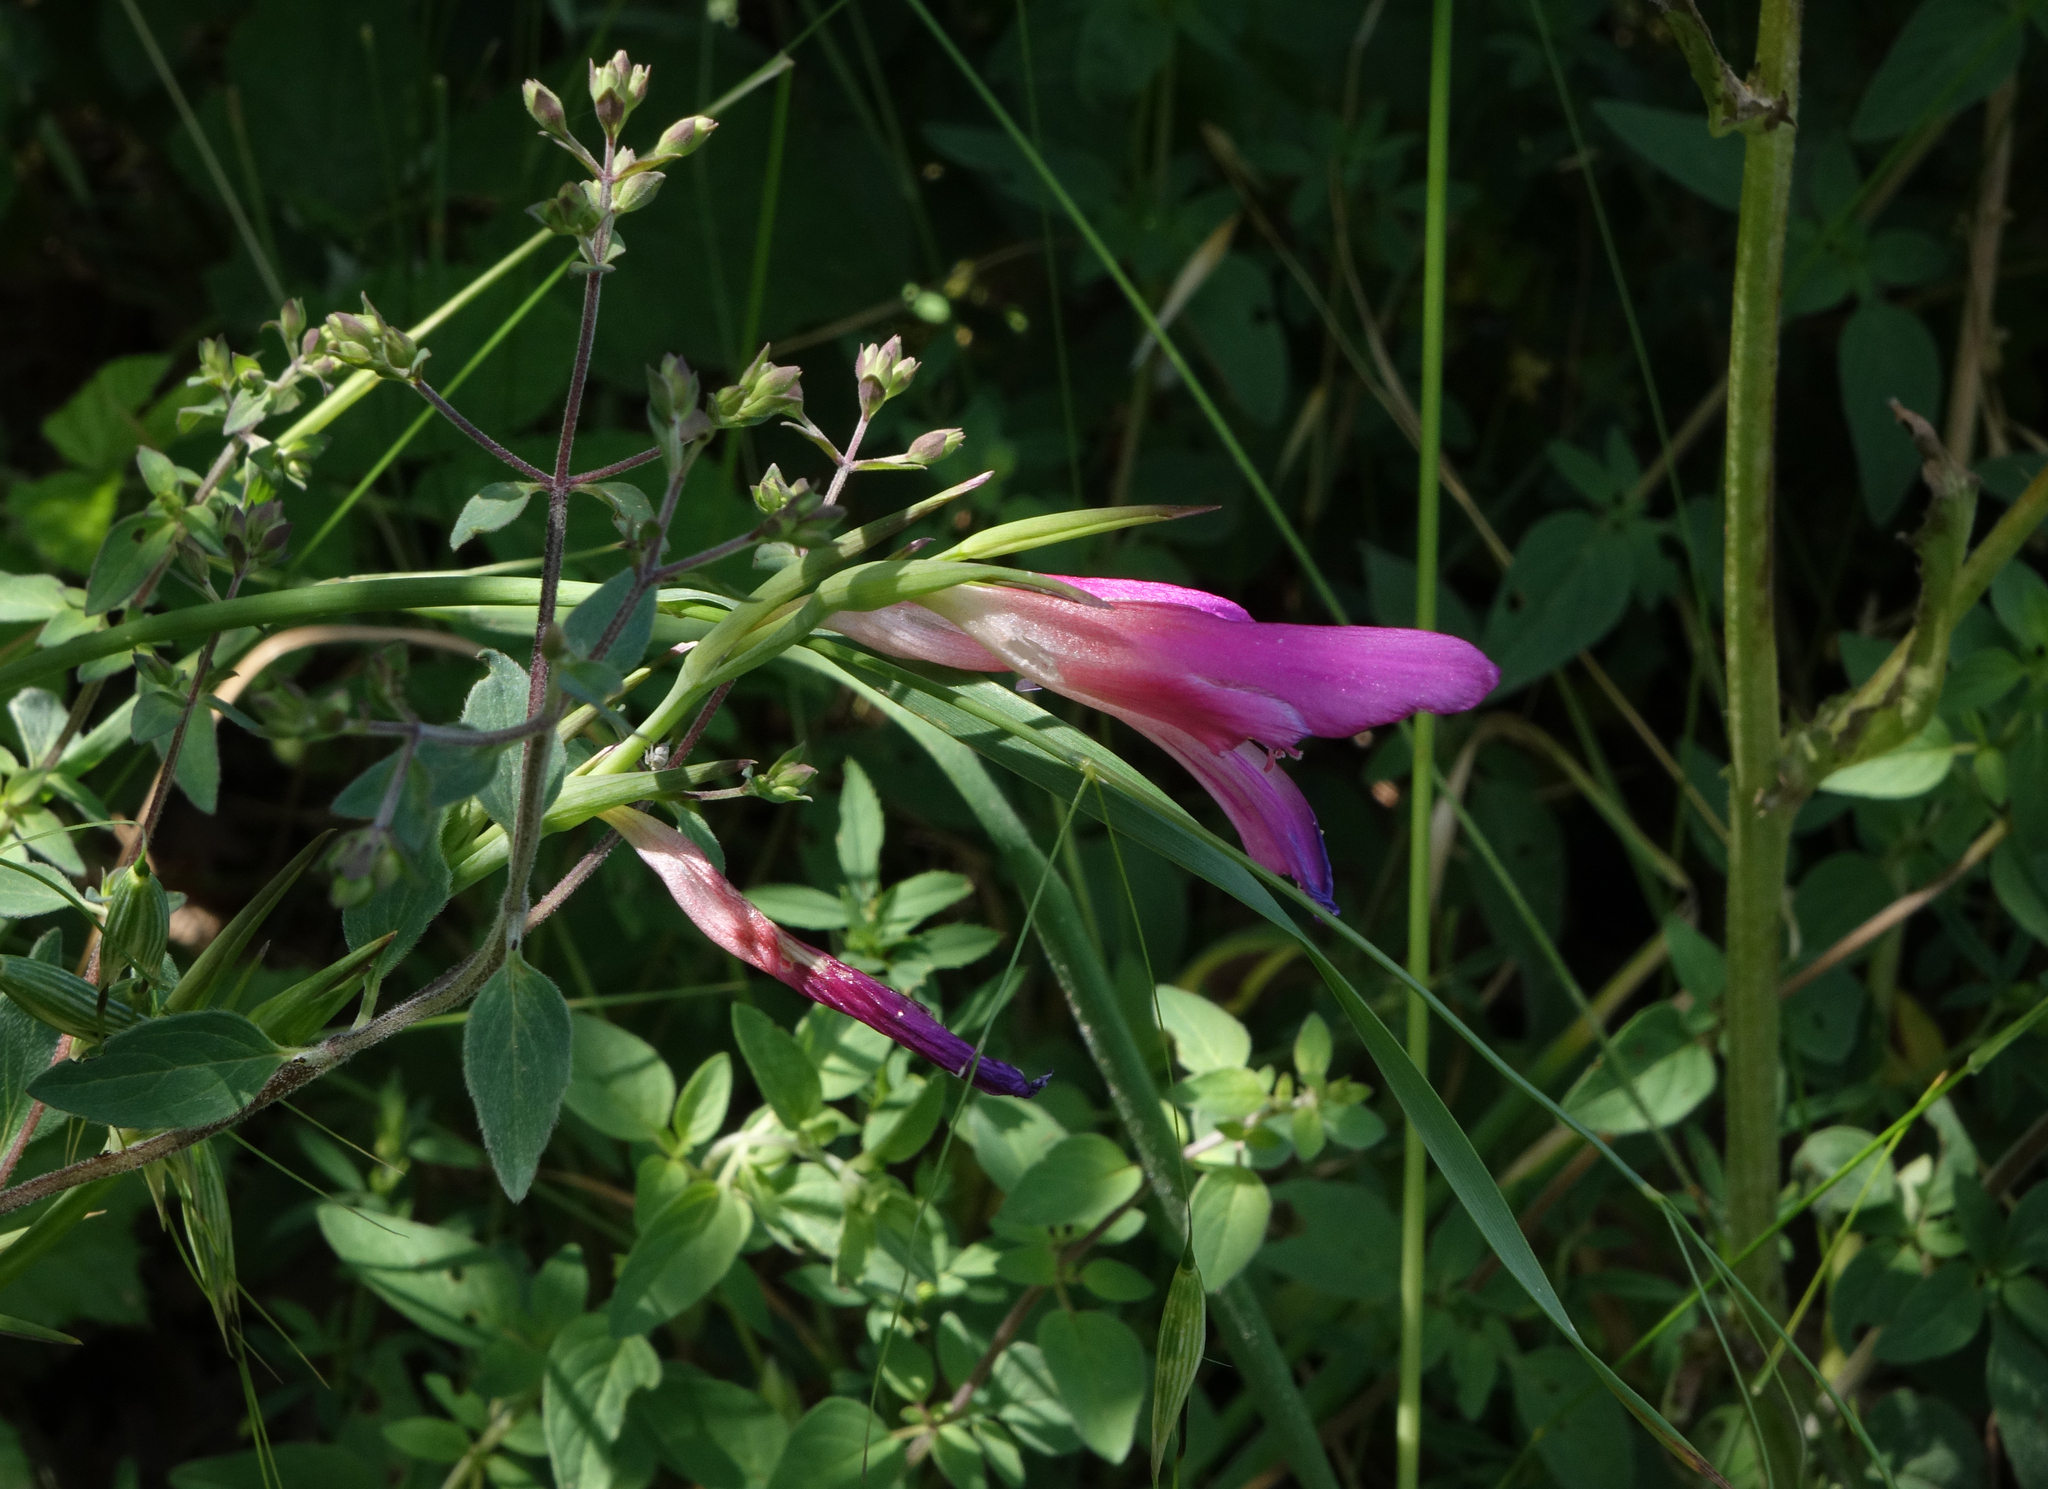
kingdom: Plantae
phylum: Tracheophyta
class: Liliopsida
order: Asparagales
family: Iridaceae
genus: Gladiolus
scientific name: Gladiolus italicus
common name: Field gladiolus
